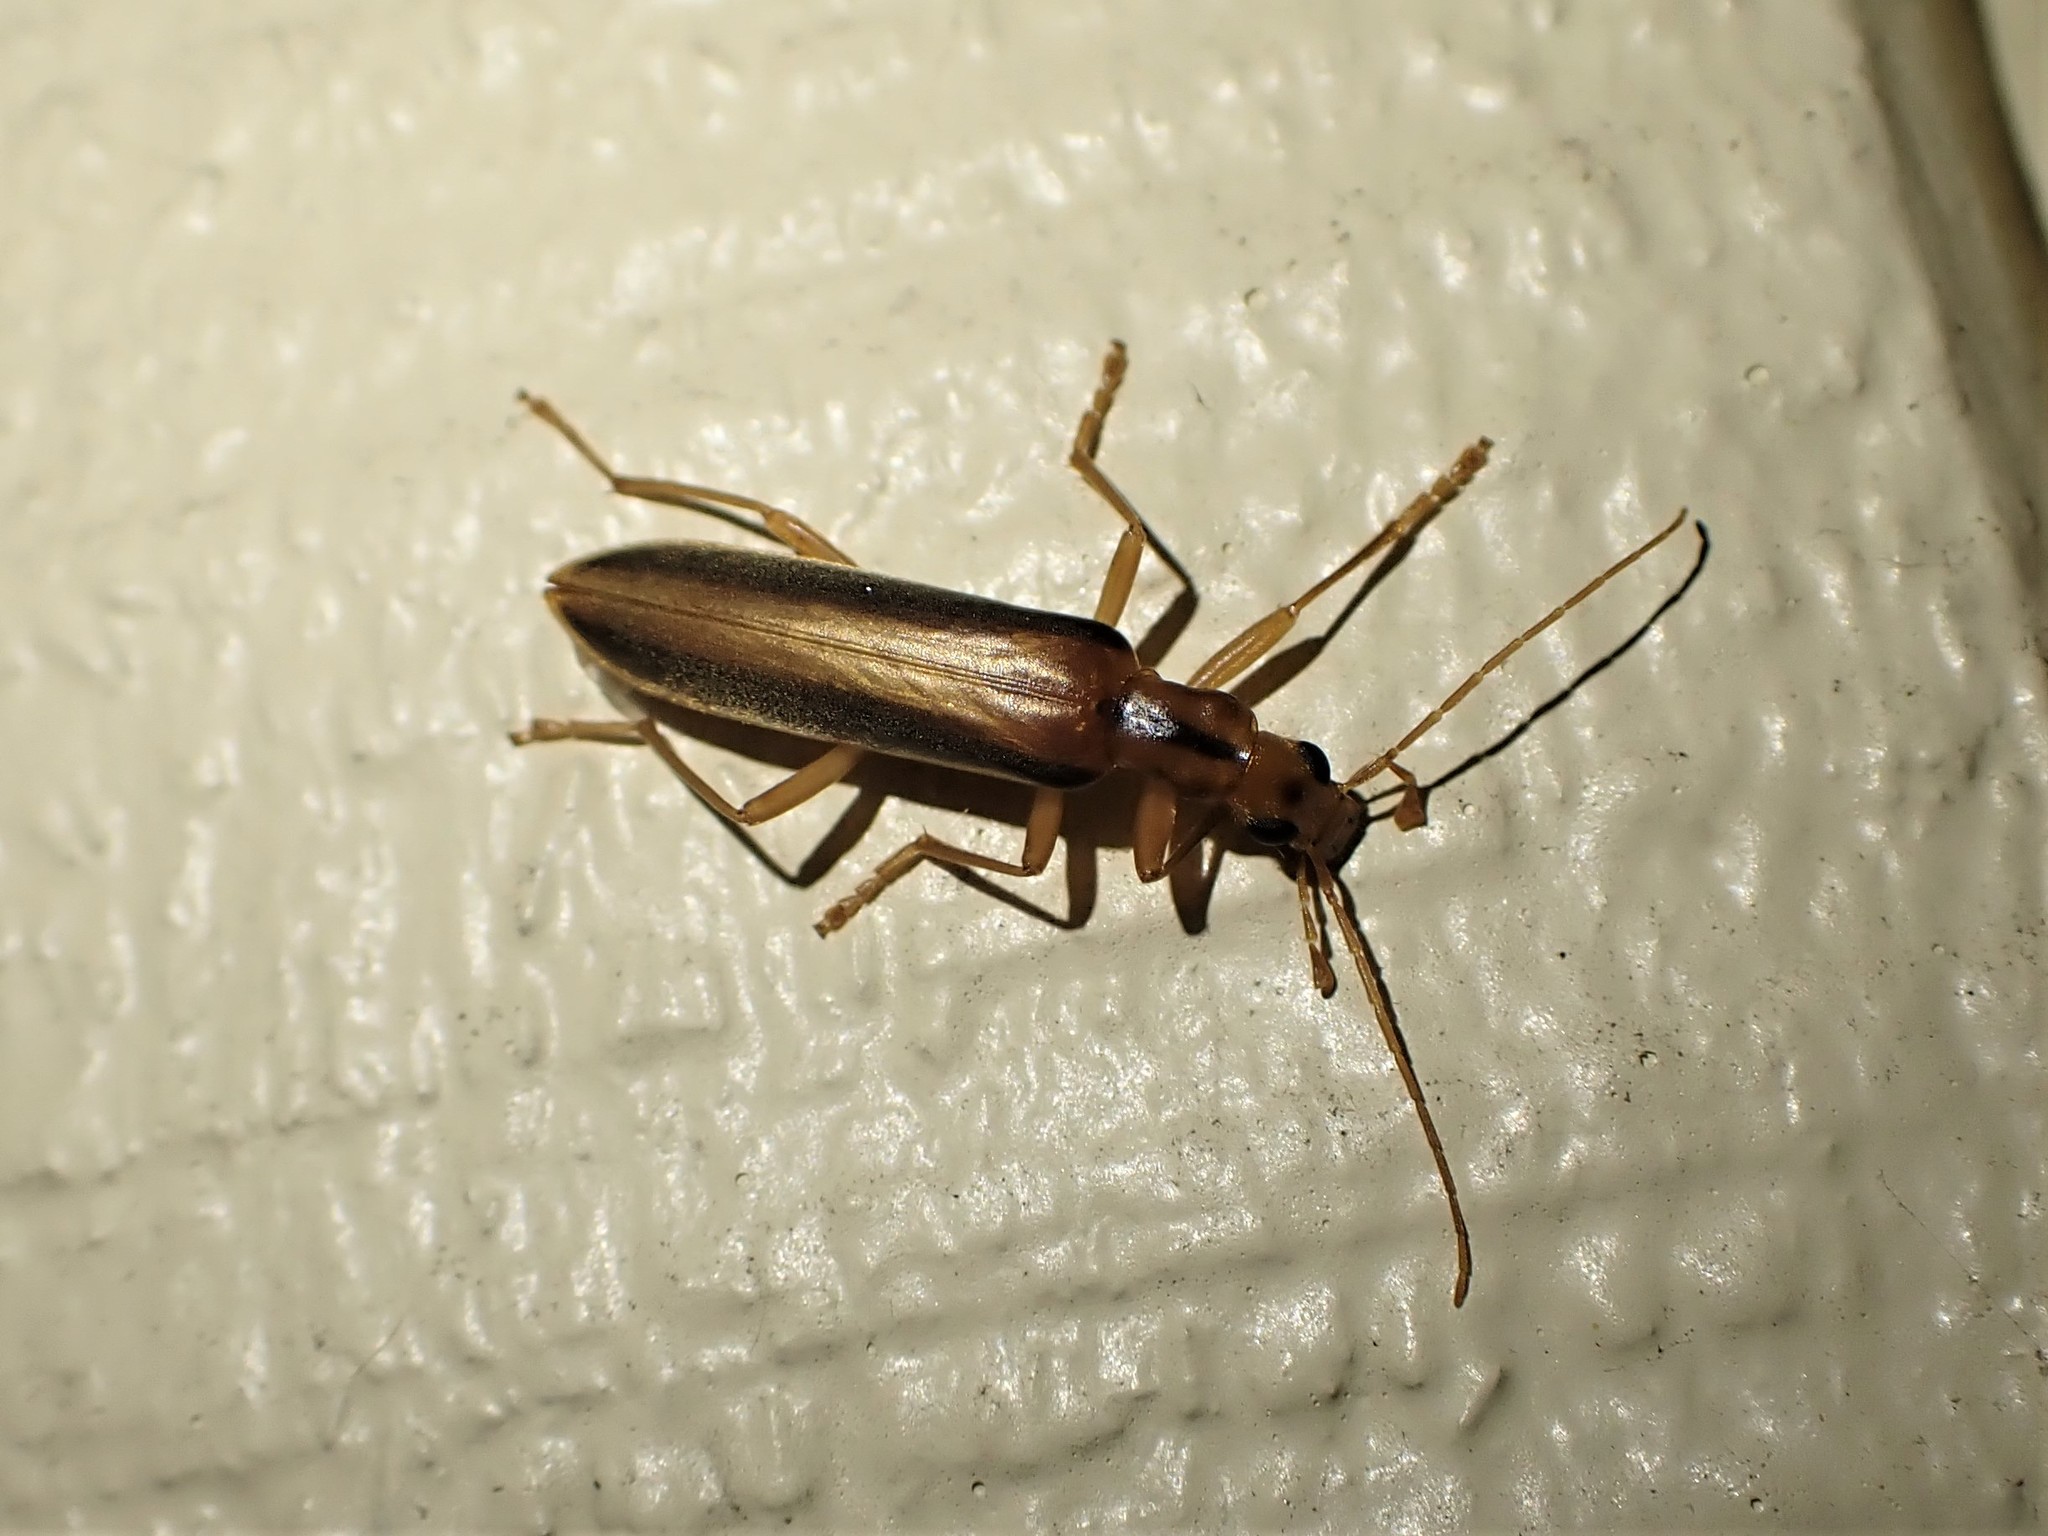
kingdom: Animalia
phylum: Arthropoda
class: Insecta
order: Coleoptera
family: Oedemeridae
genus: Thelyphassa
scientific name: Thelyphassa
